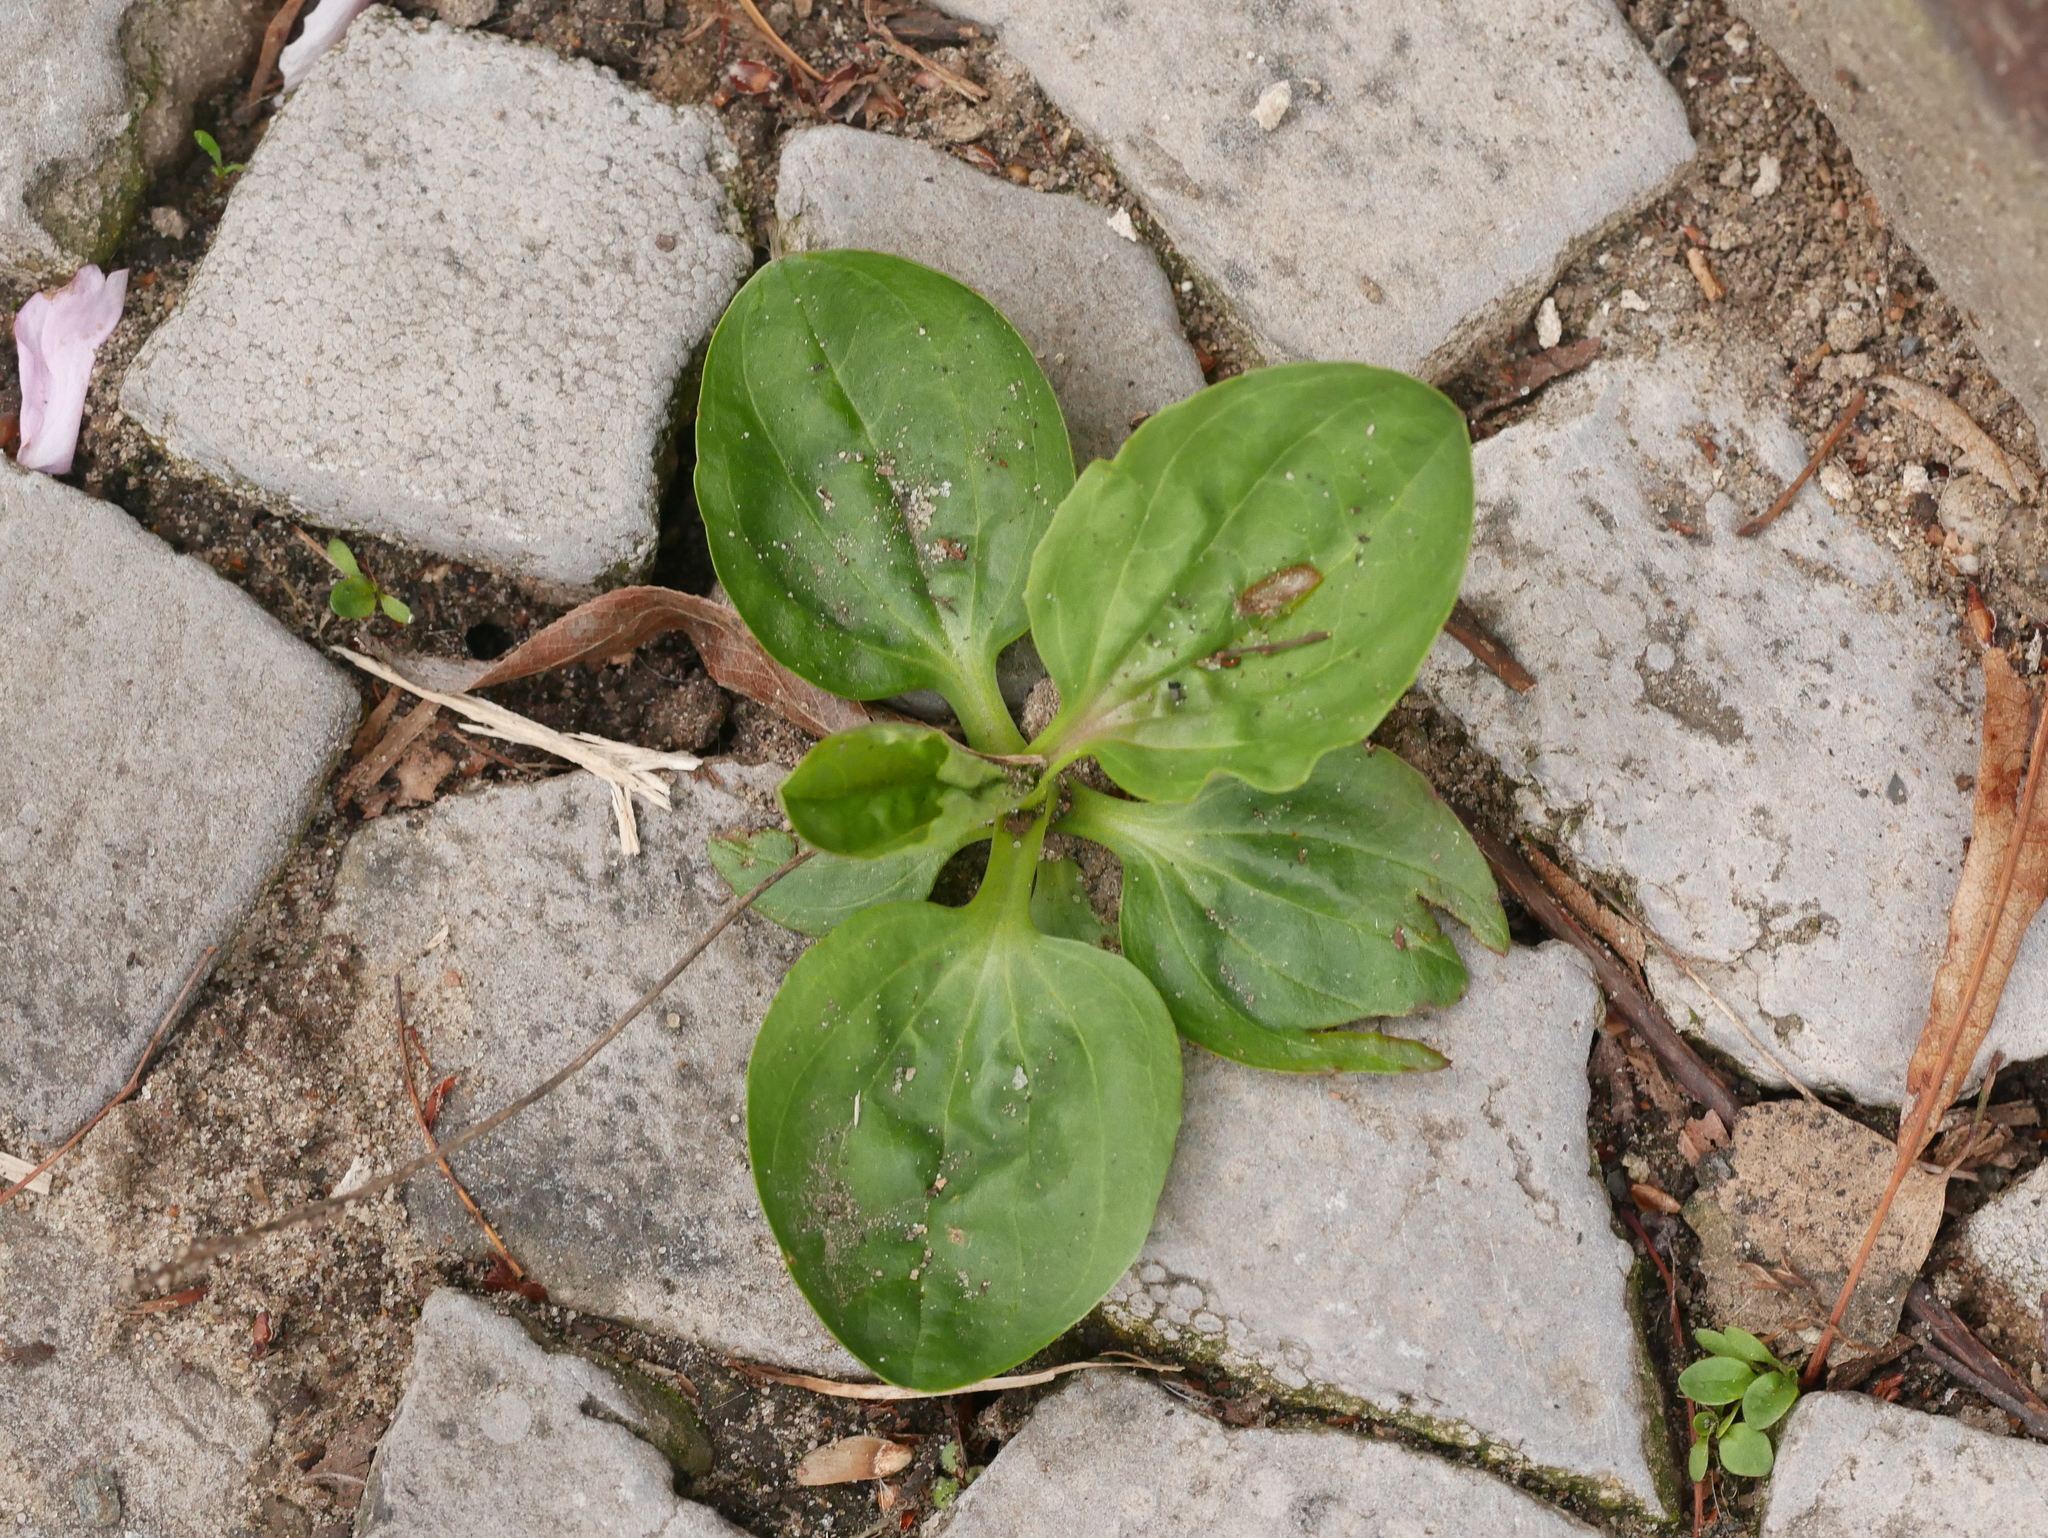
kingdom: Plantae
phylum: Tracheophyta
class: Magnoliopsida
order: Lamiales
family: Plantaginaceae
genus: Plantago
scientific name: Plantago major
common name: Common plantain
